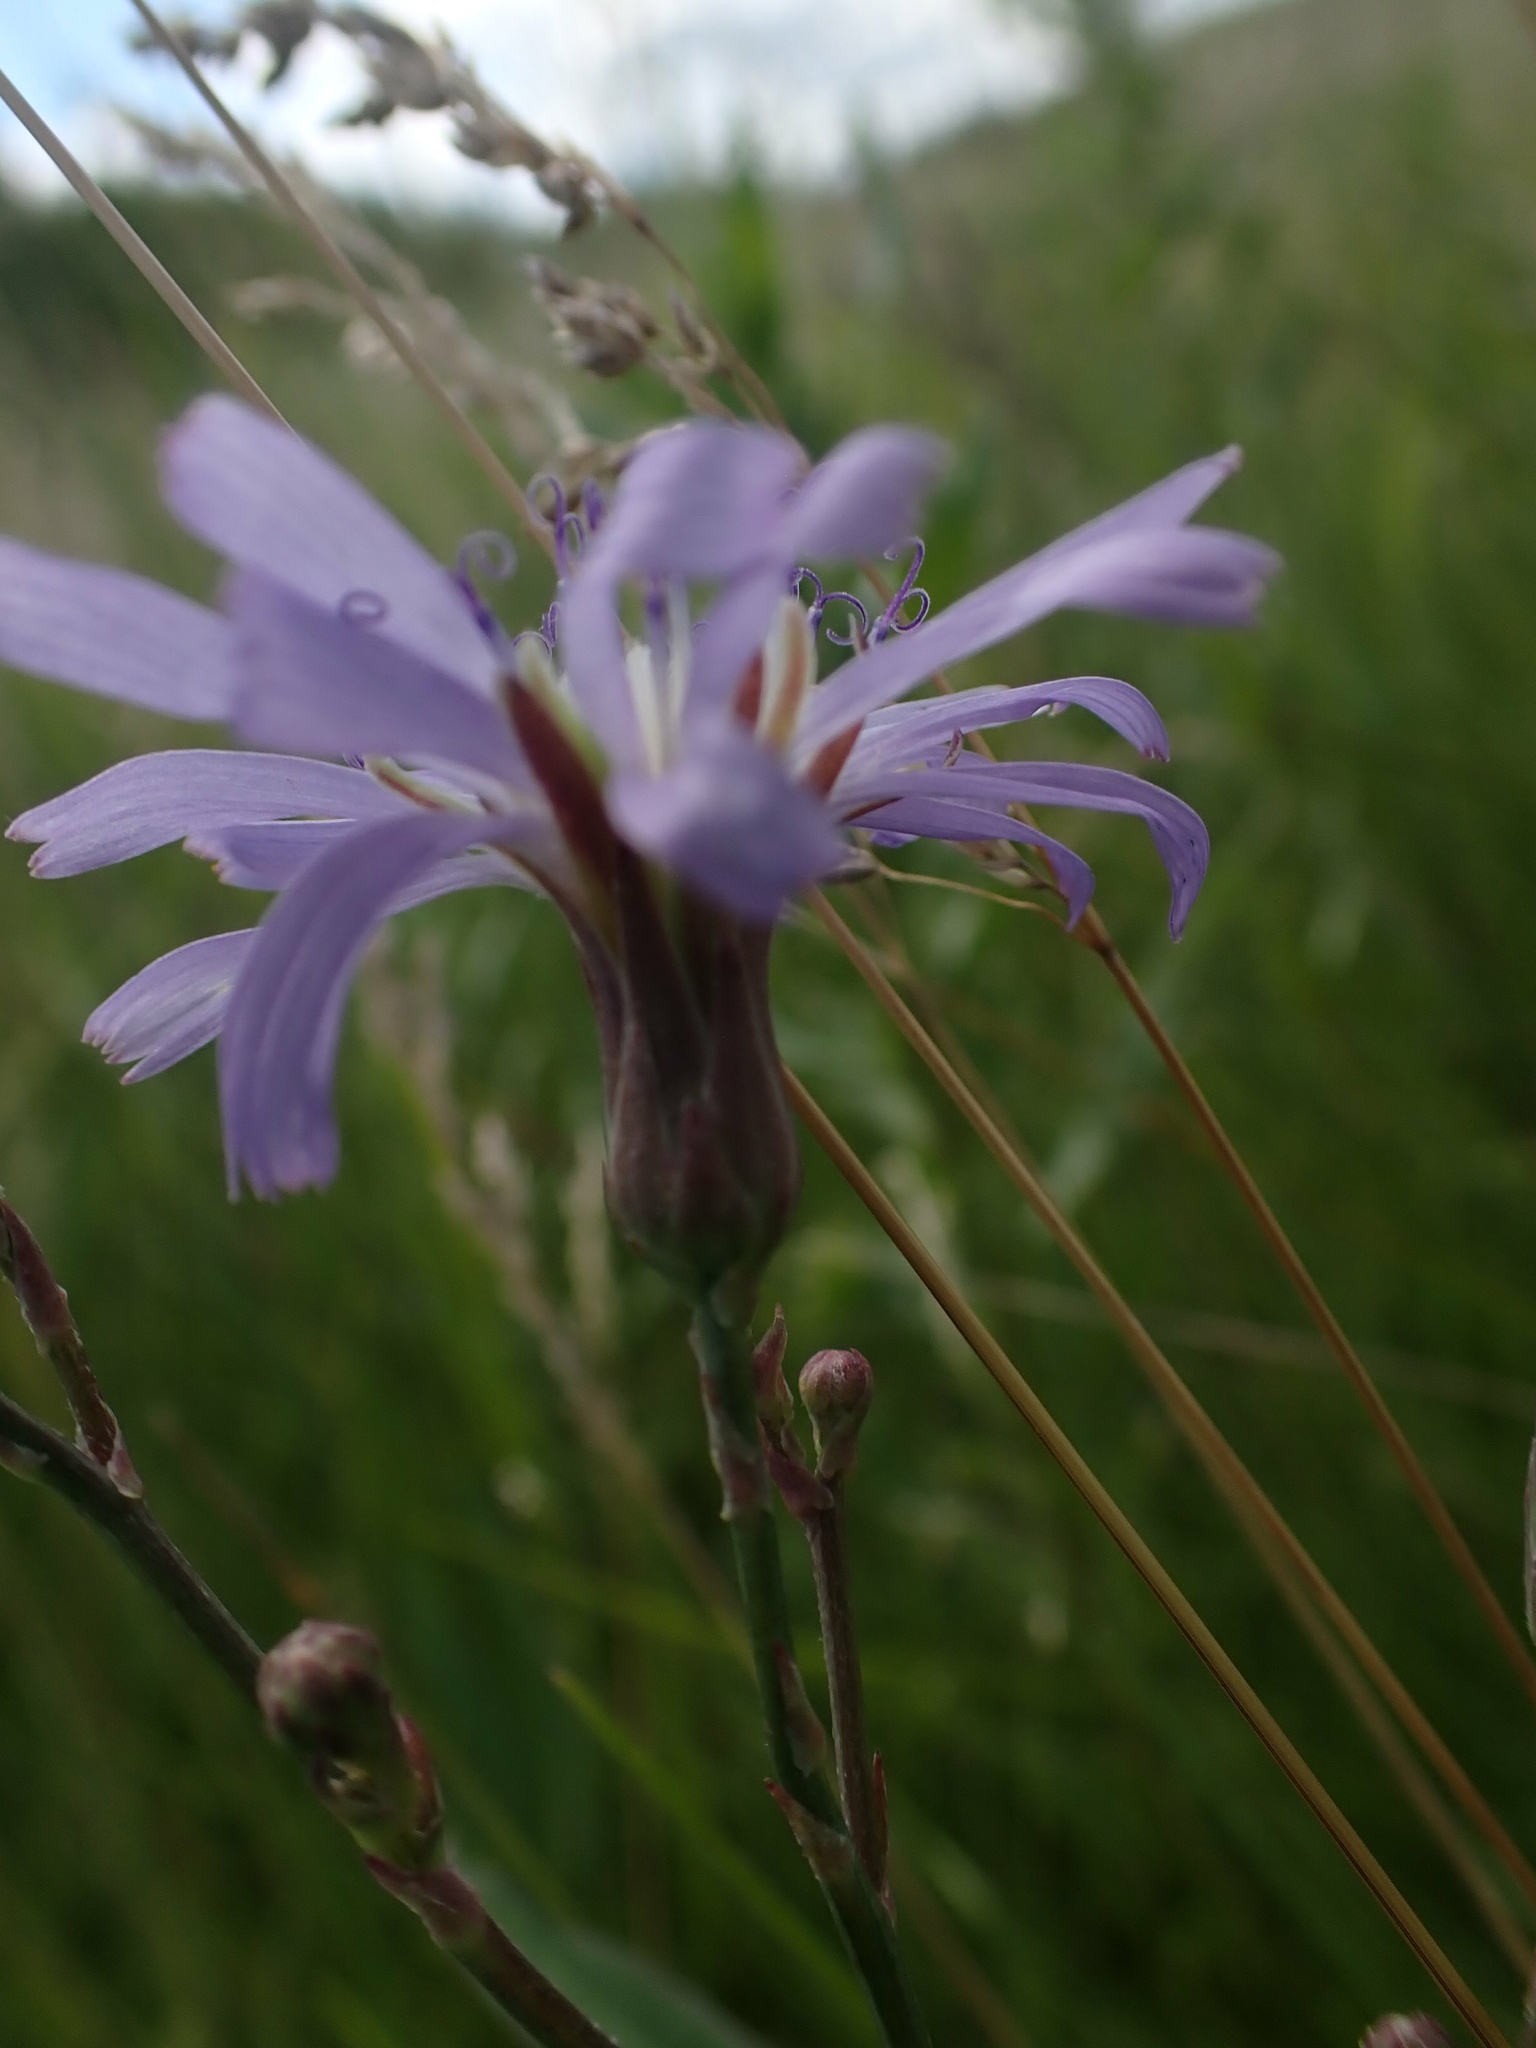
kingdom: Plantae
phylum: Tracheophyta
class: Magnoliopsida
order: Asterales
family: Asteraceae
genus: Lactuca
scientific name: Lactuca pulchella
